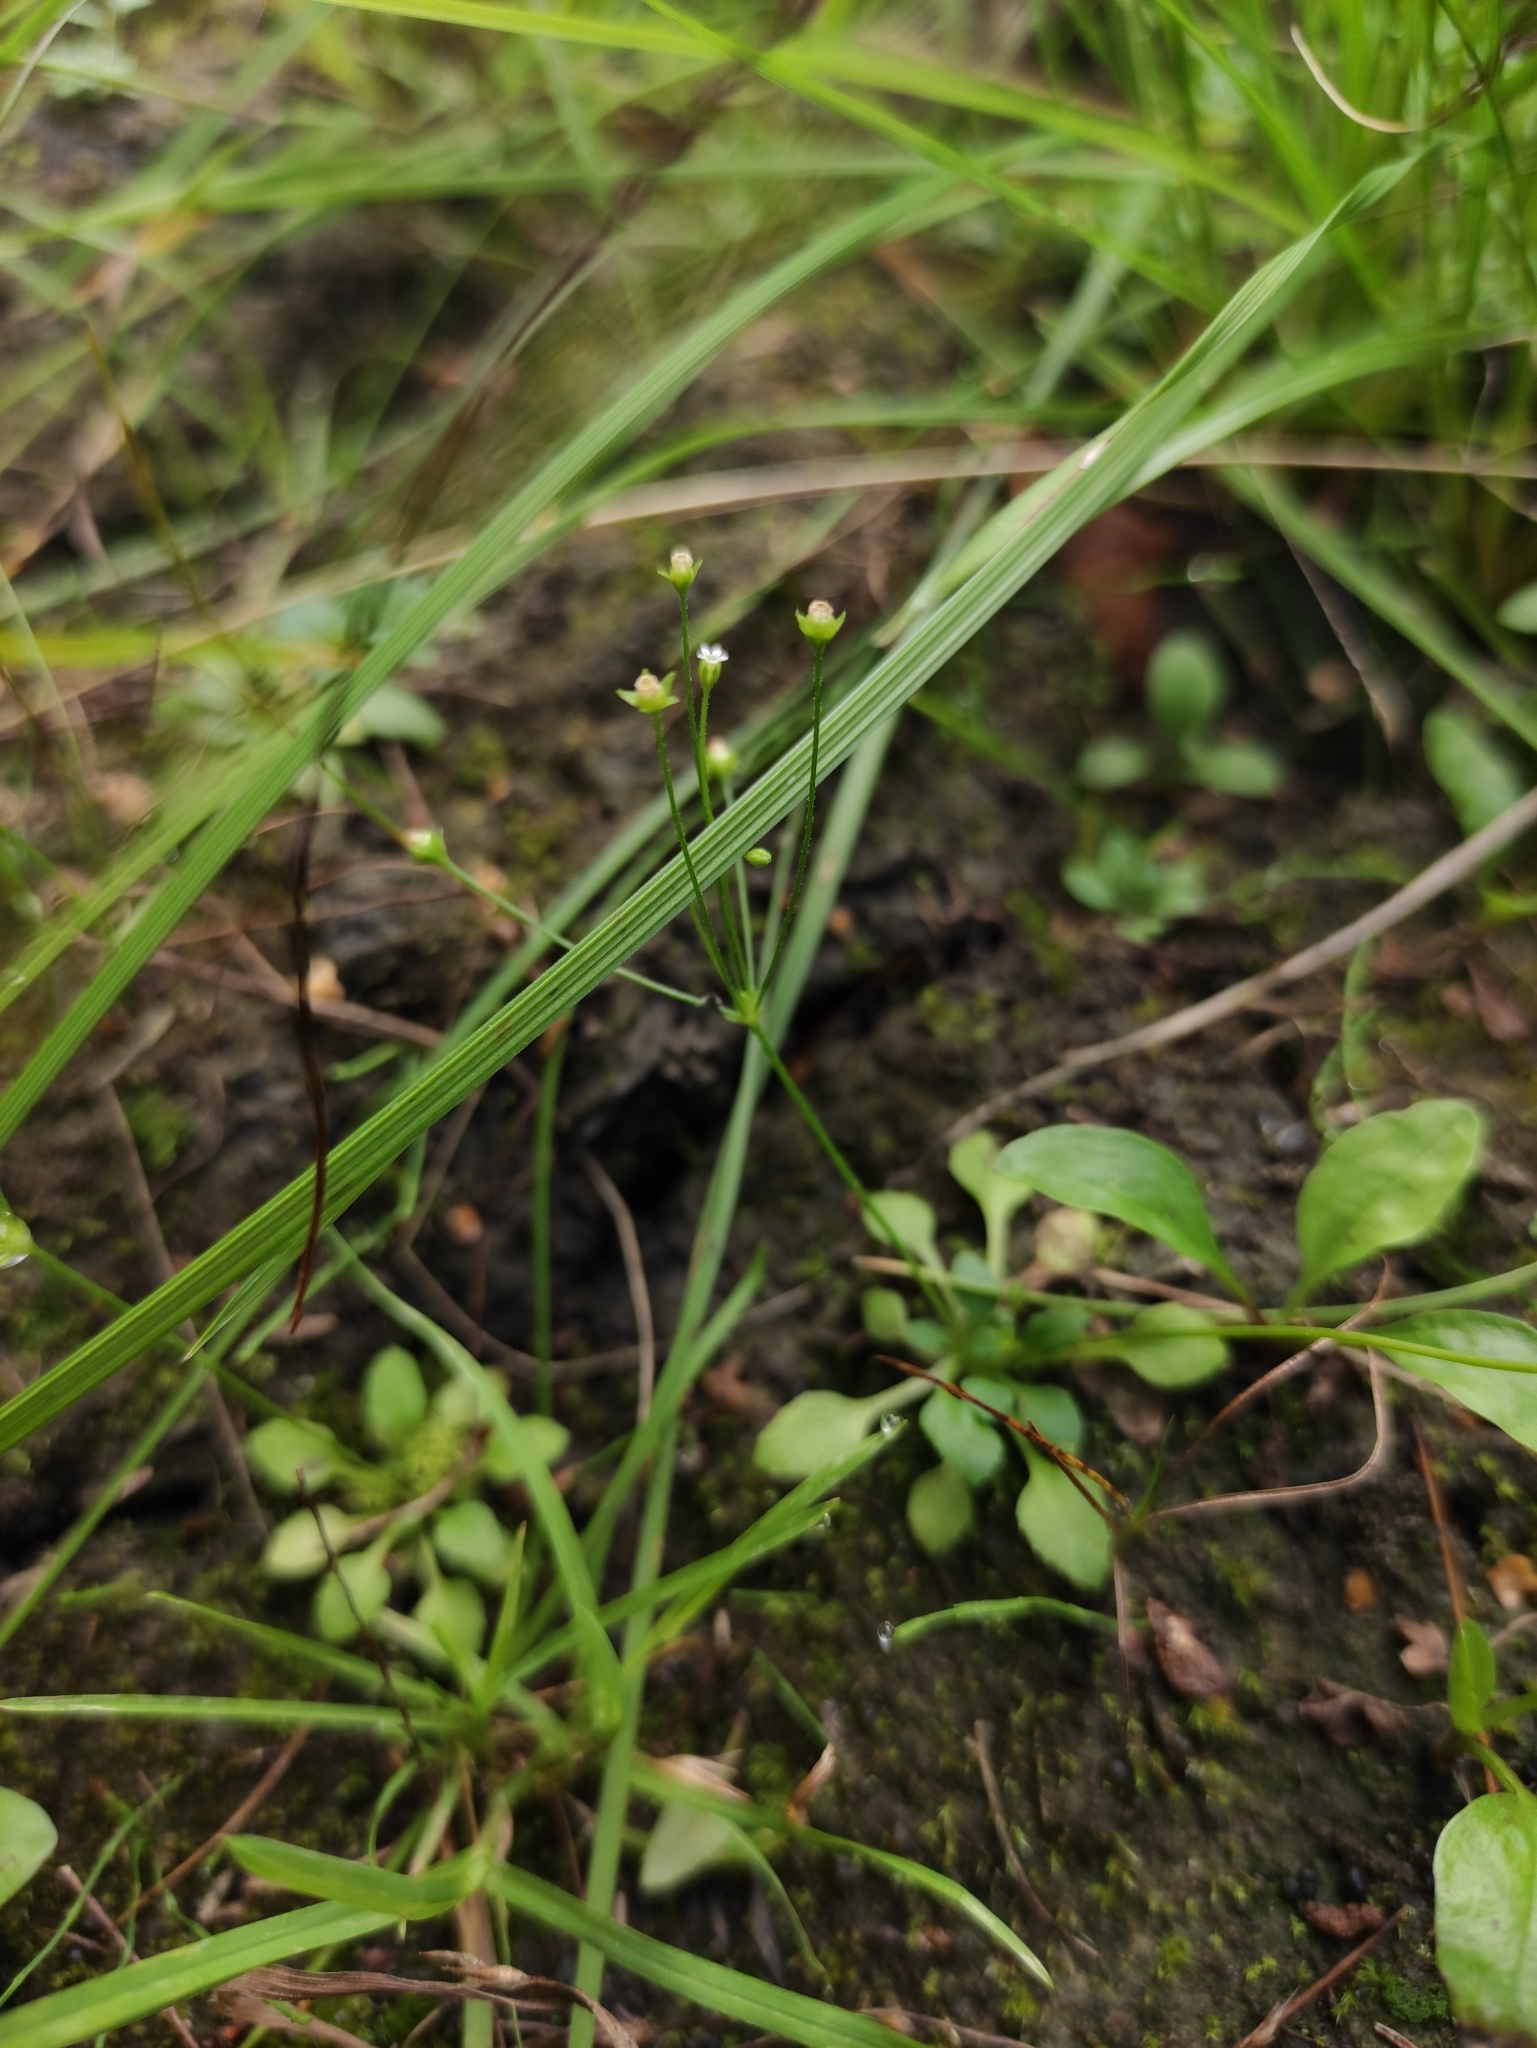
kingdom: Plantae
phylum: Tracheophyta
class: Magnoliopsida
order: Ericales
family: Primulaceae
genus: Androsace
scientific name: Androsace filiformis
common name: Filiform rock jasmine
